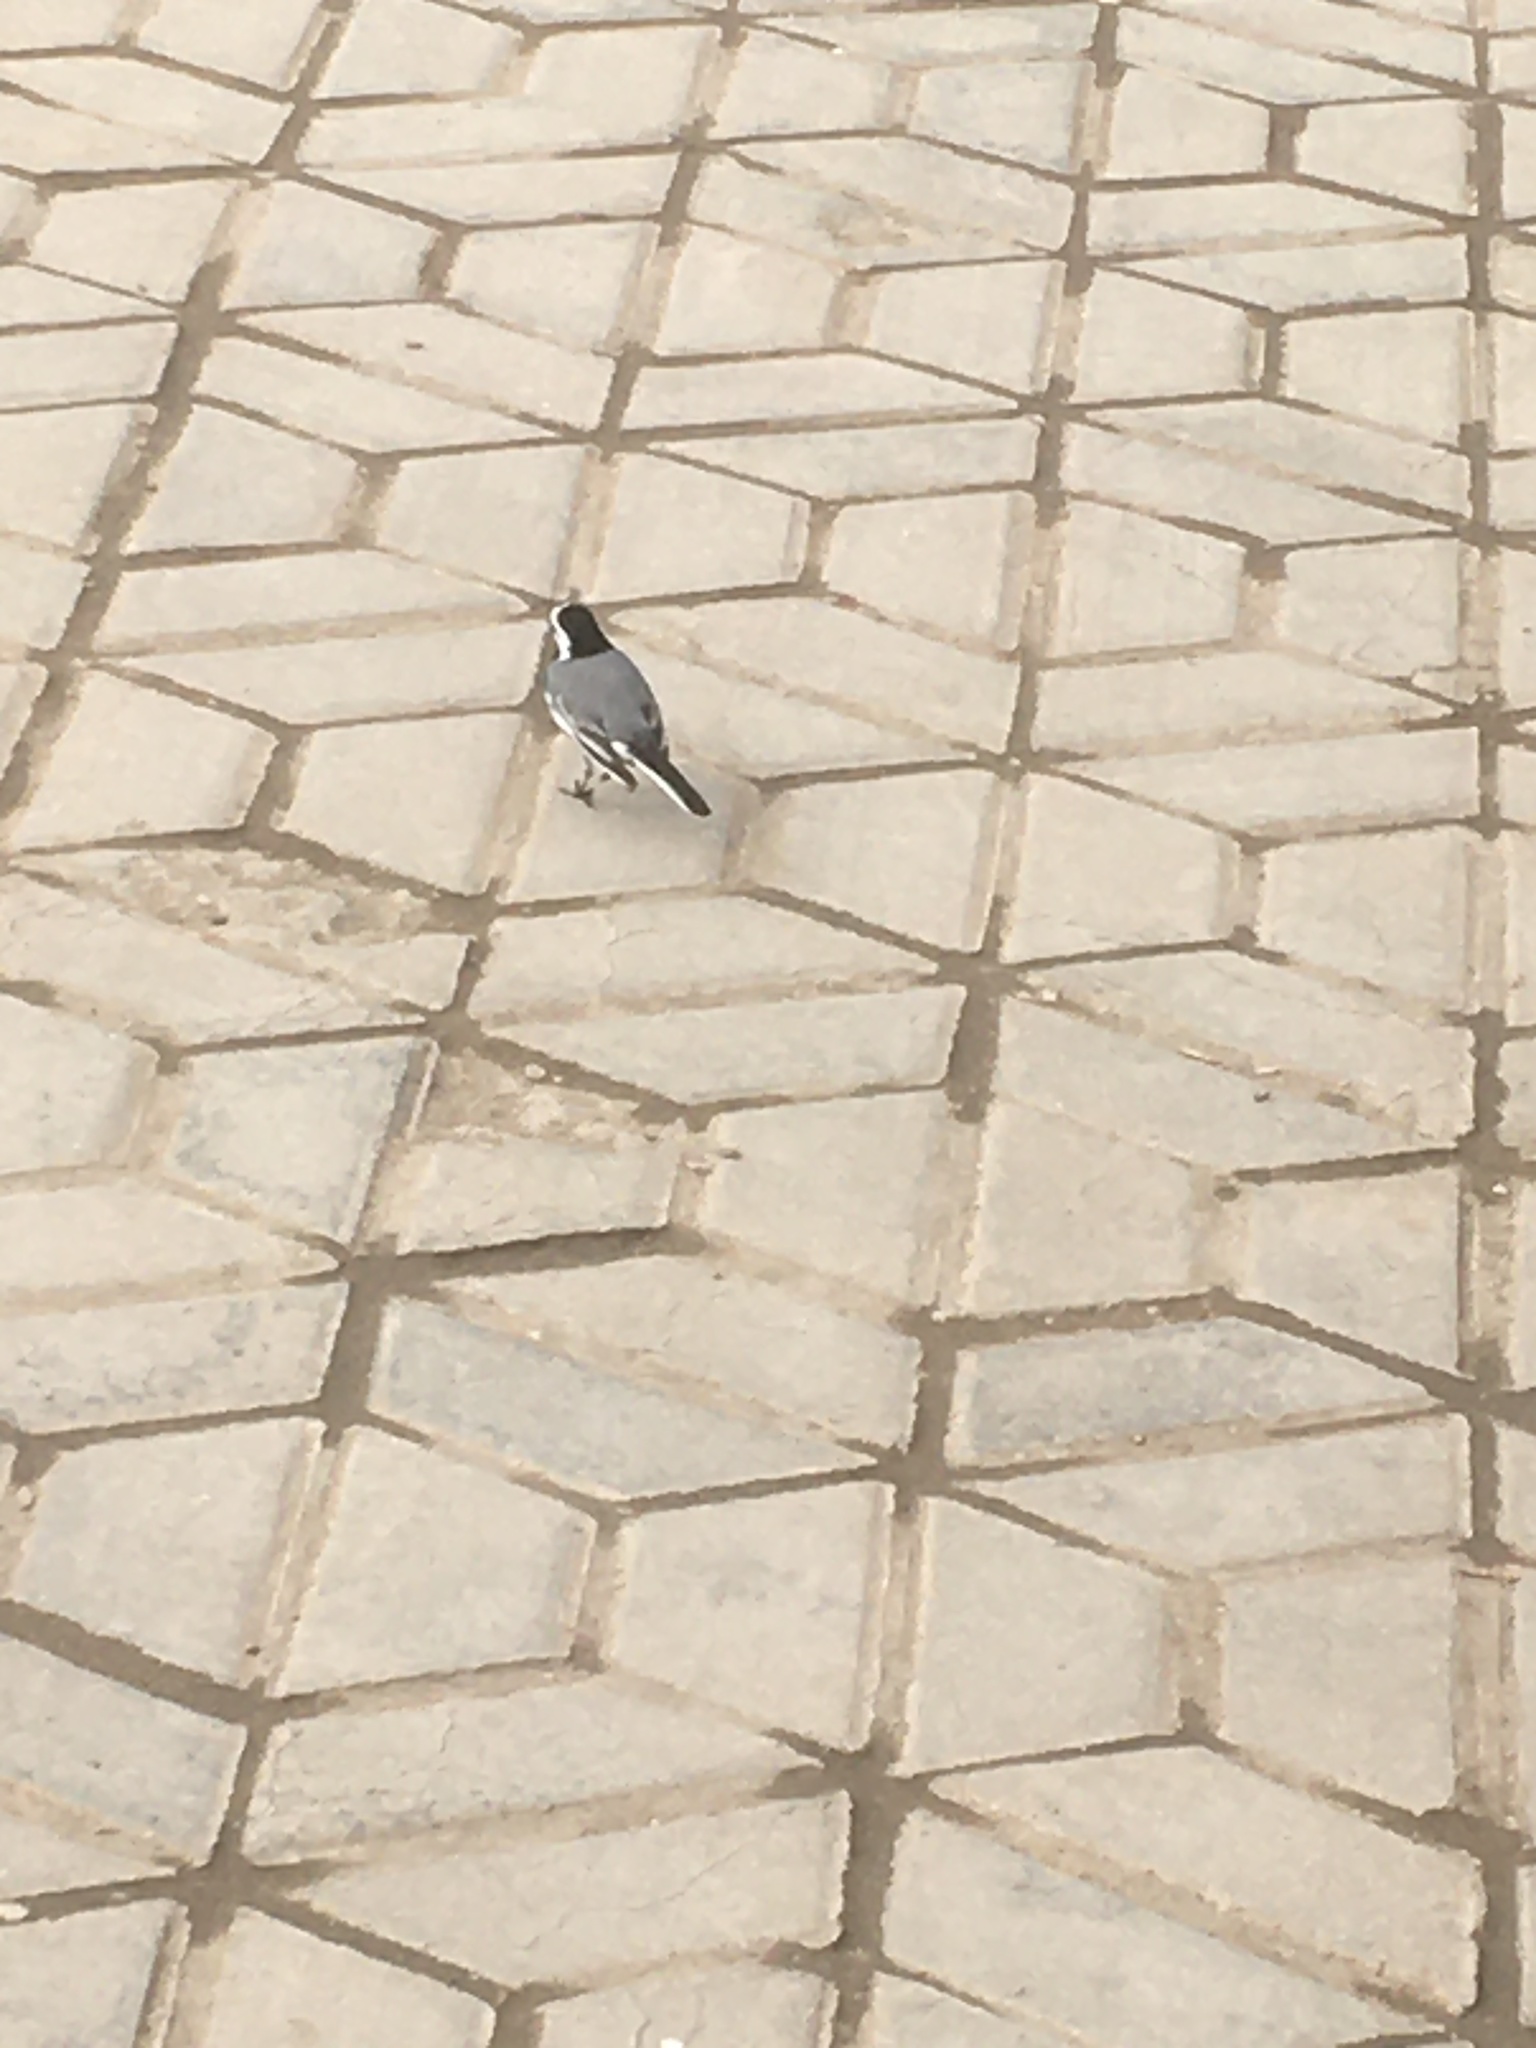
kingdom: Animalia
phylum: Chordata
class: Aves
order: Passeriformes
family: Motacillidae
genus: Motacilla
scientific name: Motacilla alba
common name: White wagtail
